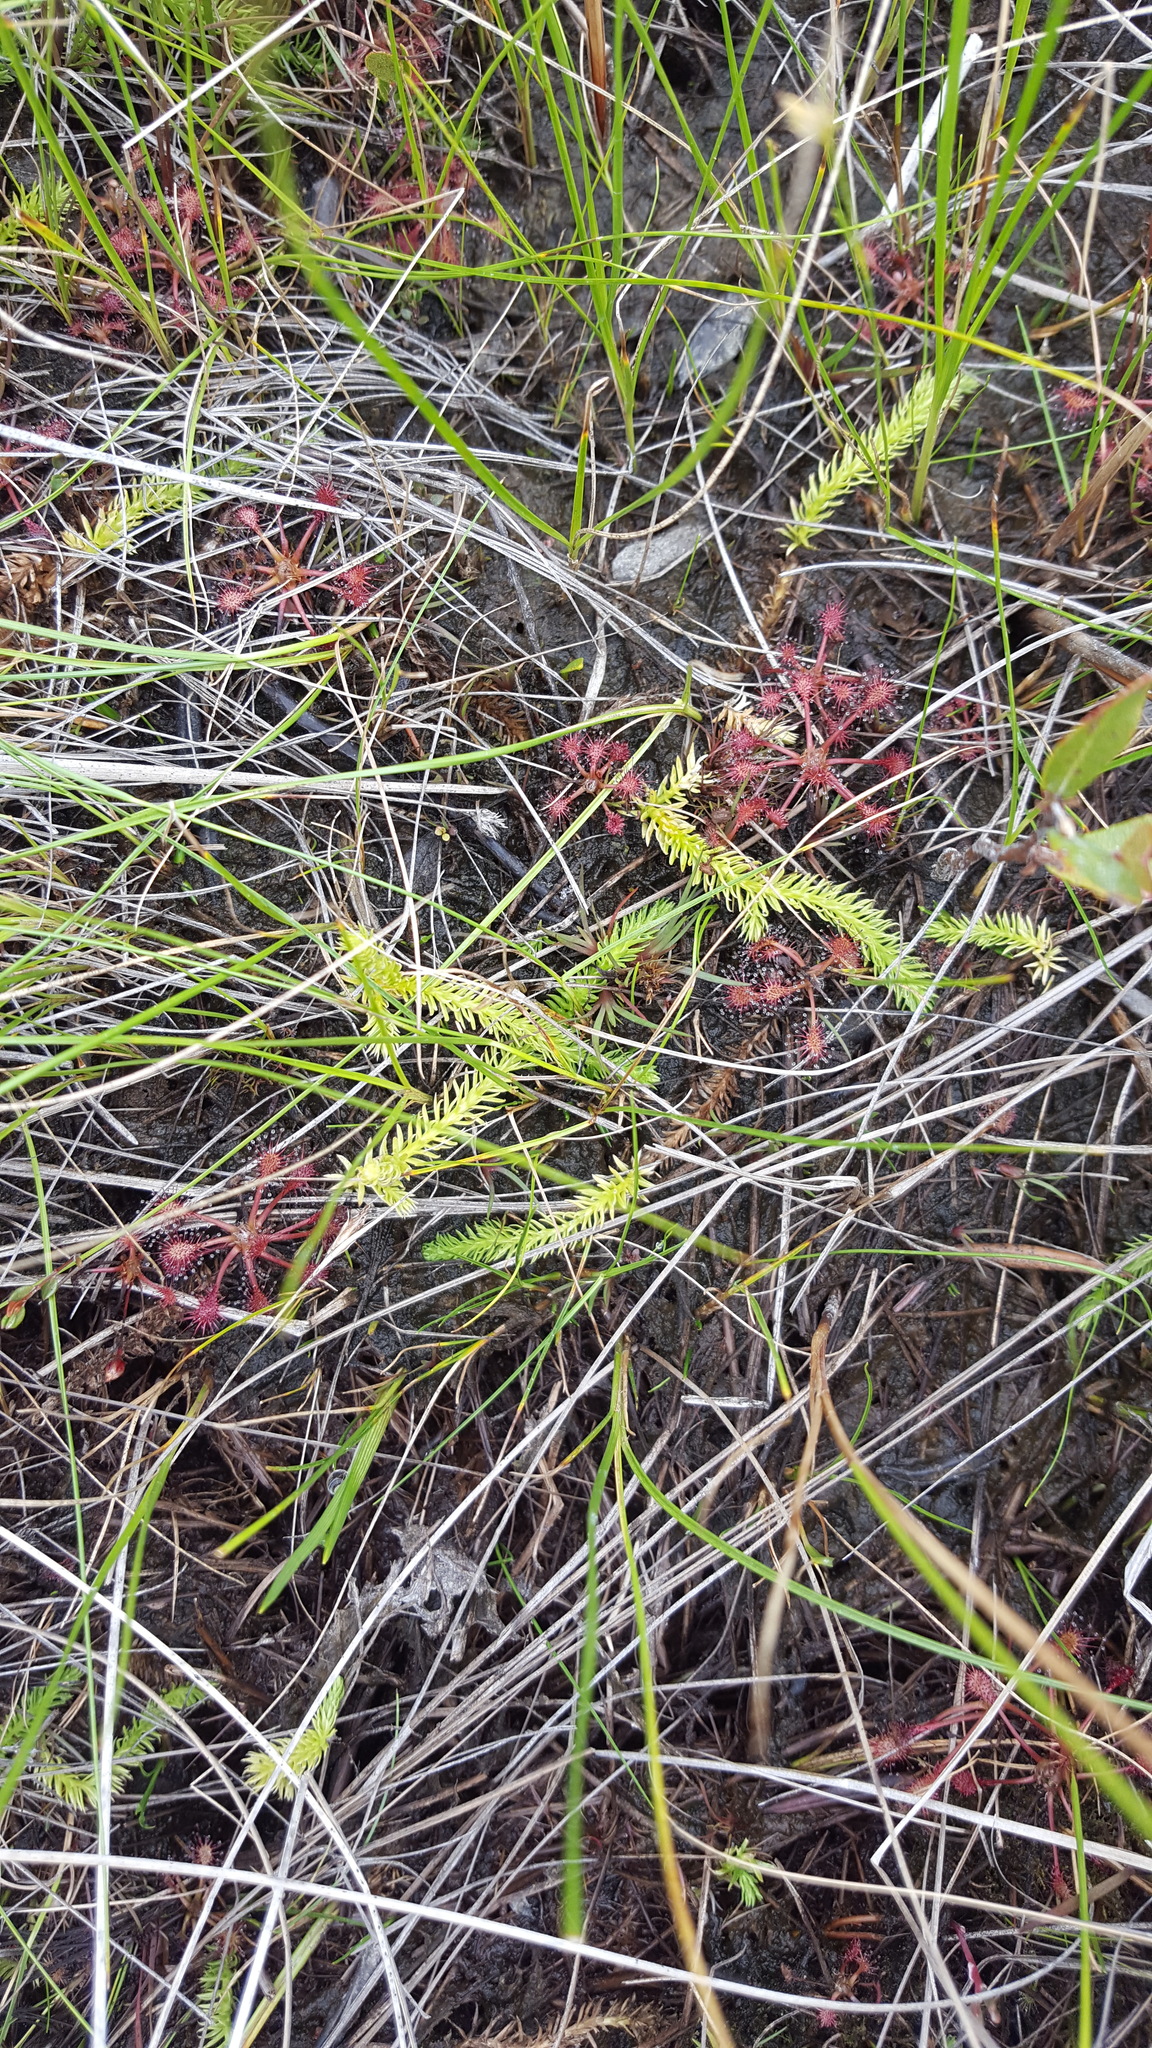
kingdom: Plantae
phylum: Tracheophyta
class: Lycopodiopsida
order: Lycopodiales
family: Lycopodiaceae
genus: Lycopodiella
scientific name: Lycopodiella inundata
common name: Marsh clubmoss
